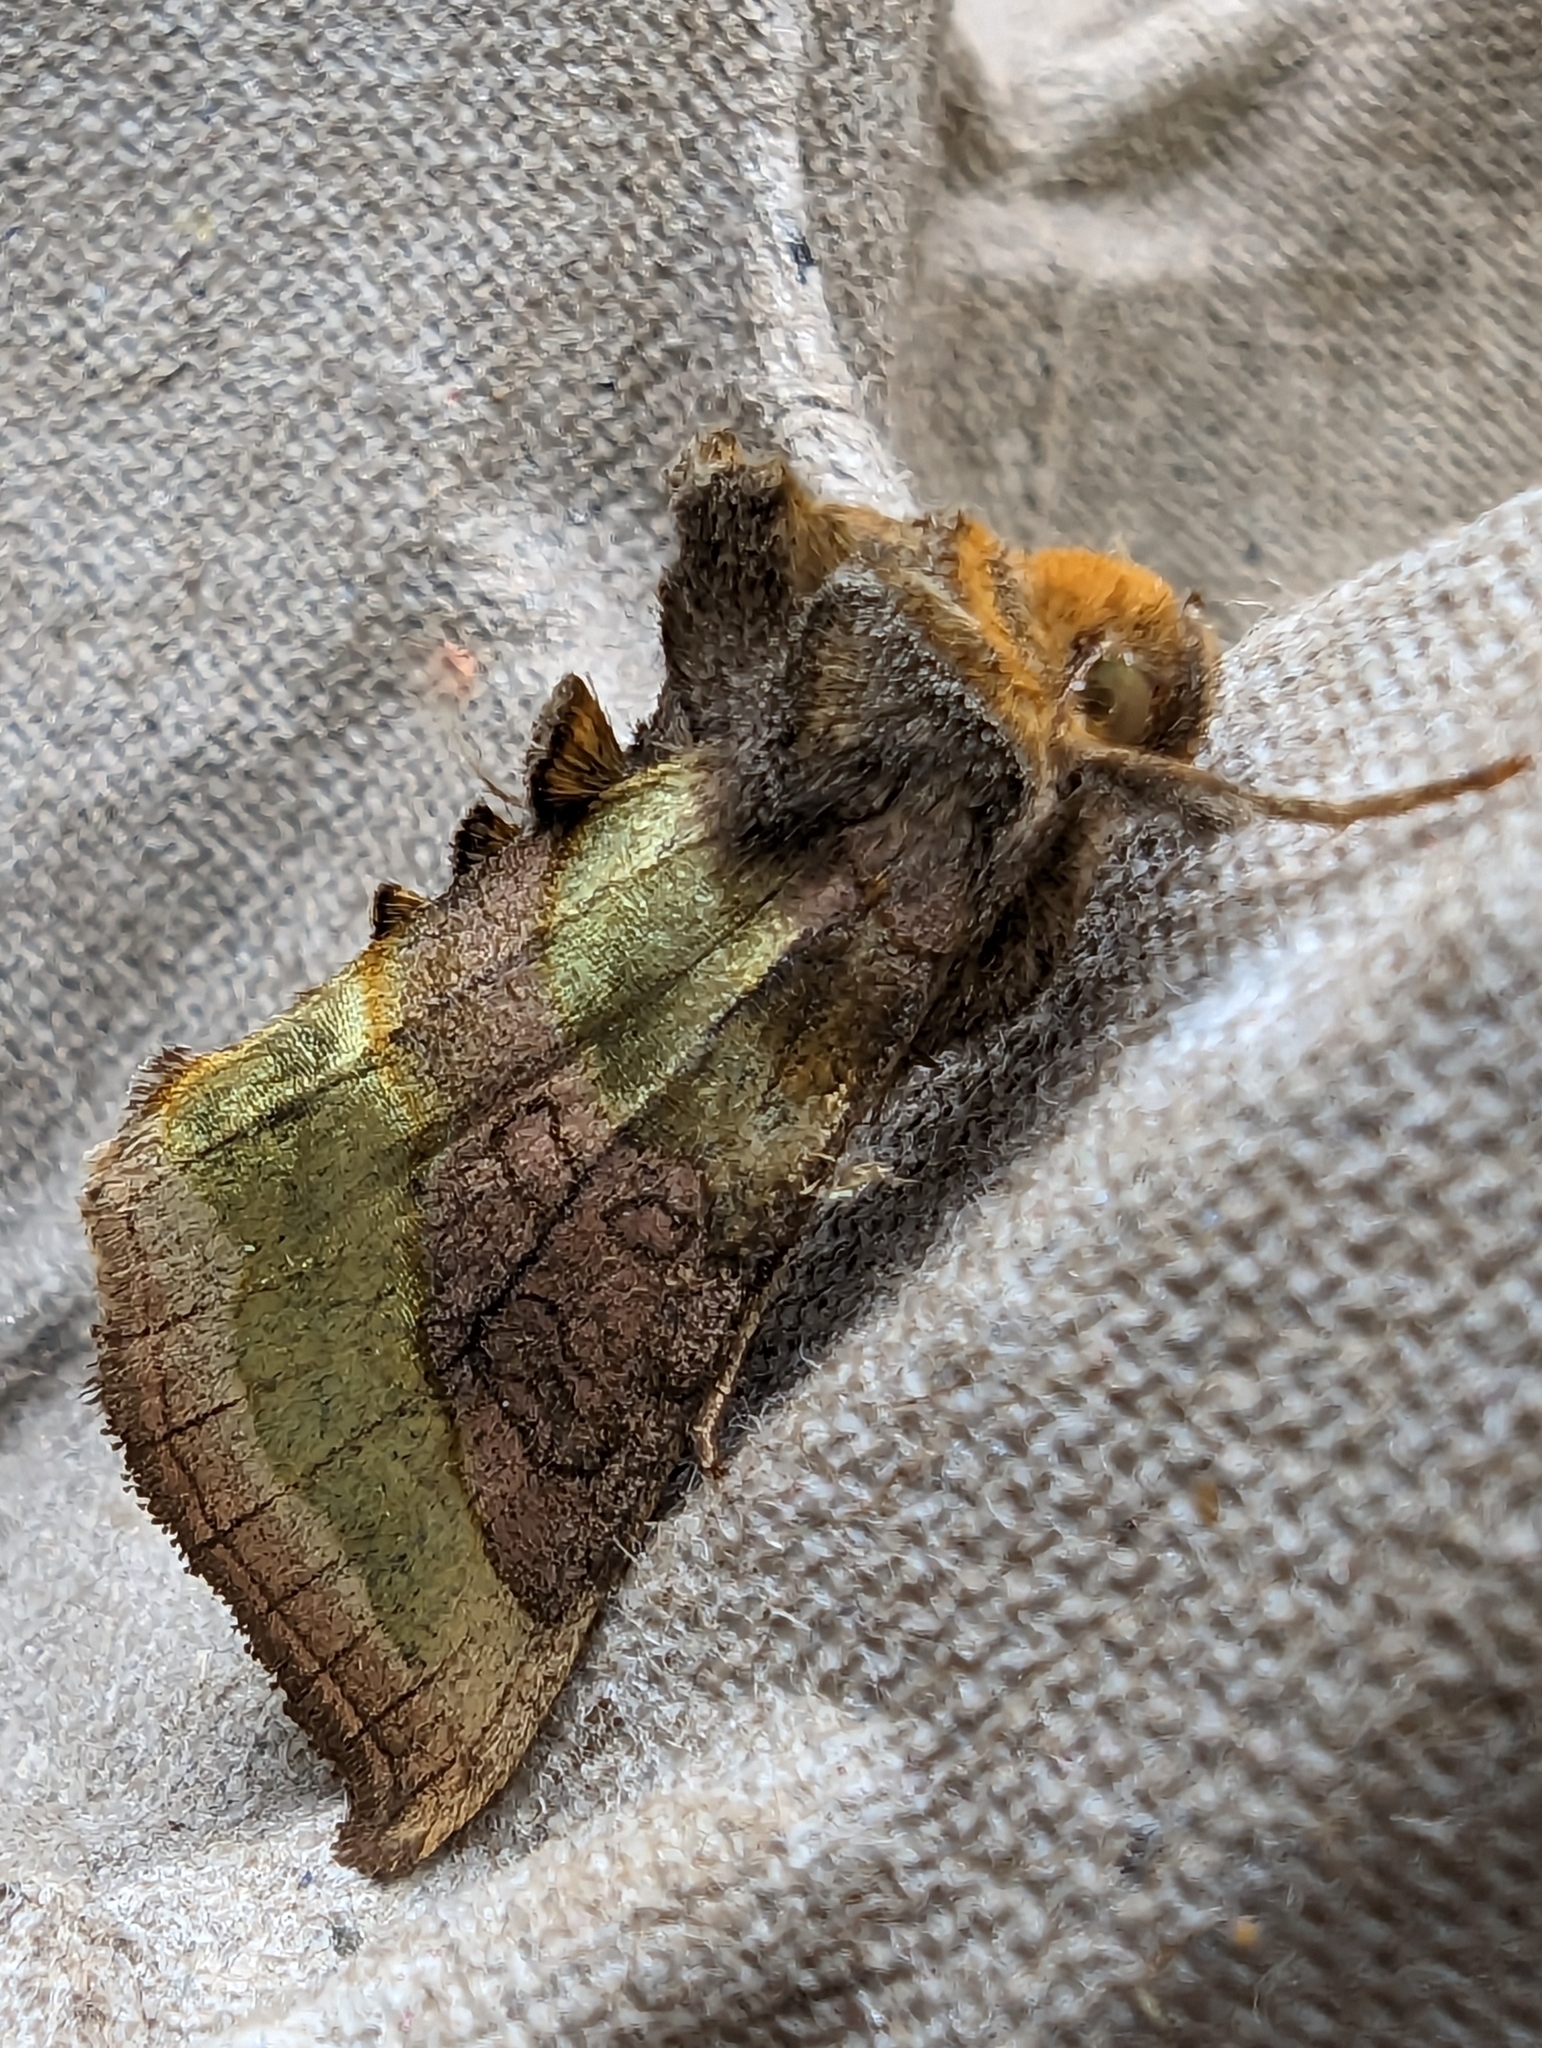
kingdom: Animalia
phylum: Arthropoda
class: Insecta
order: Lepidoptera
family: Noctuidae
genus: Diachrysia
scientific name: Diachrysia chrysitis
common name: Burnished brass
